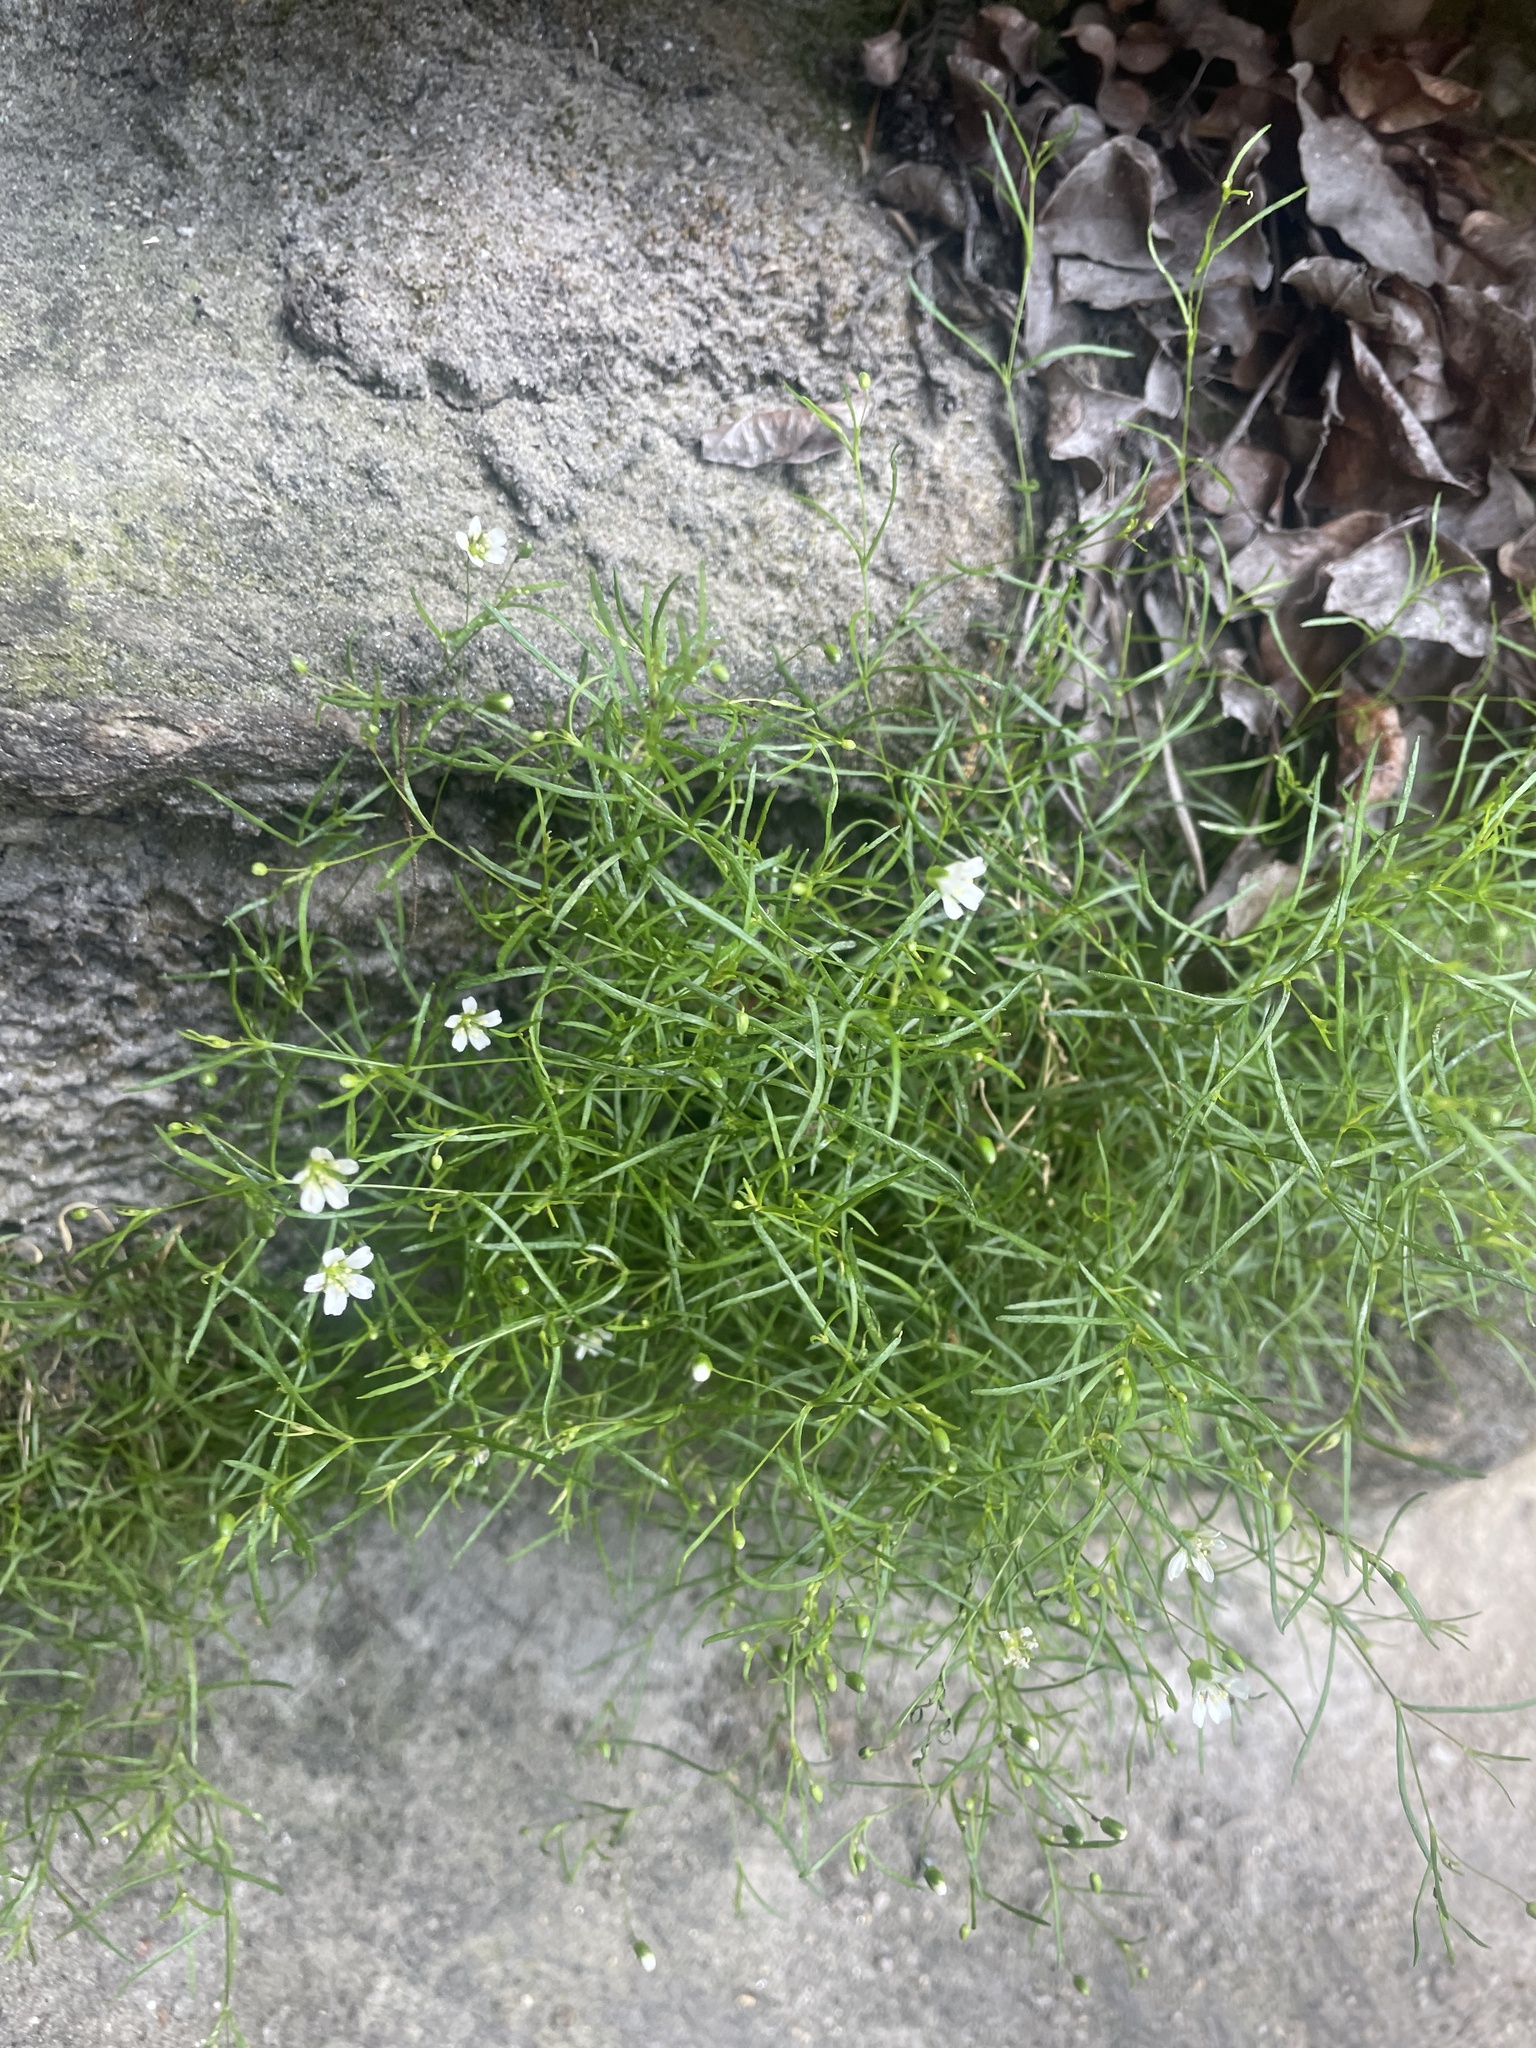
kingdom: Plantae
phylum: Tracheophyta
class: Magnoliopsida
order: Caryophyllales
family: Caryophyllaceae
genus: Geocarpon
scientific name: Geocarpon groenlandicum
